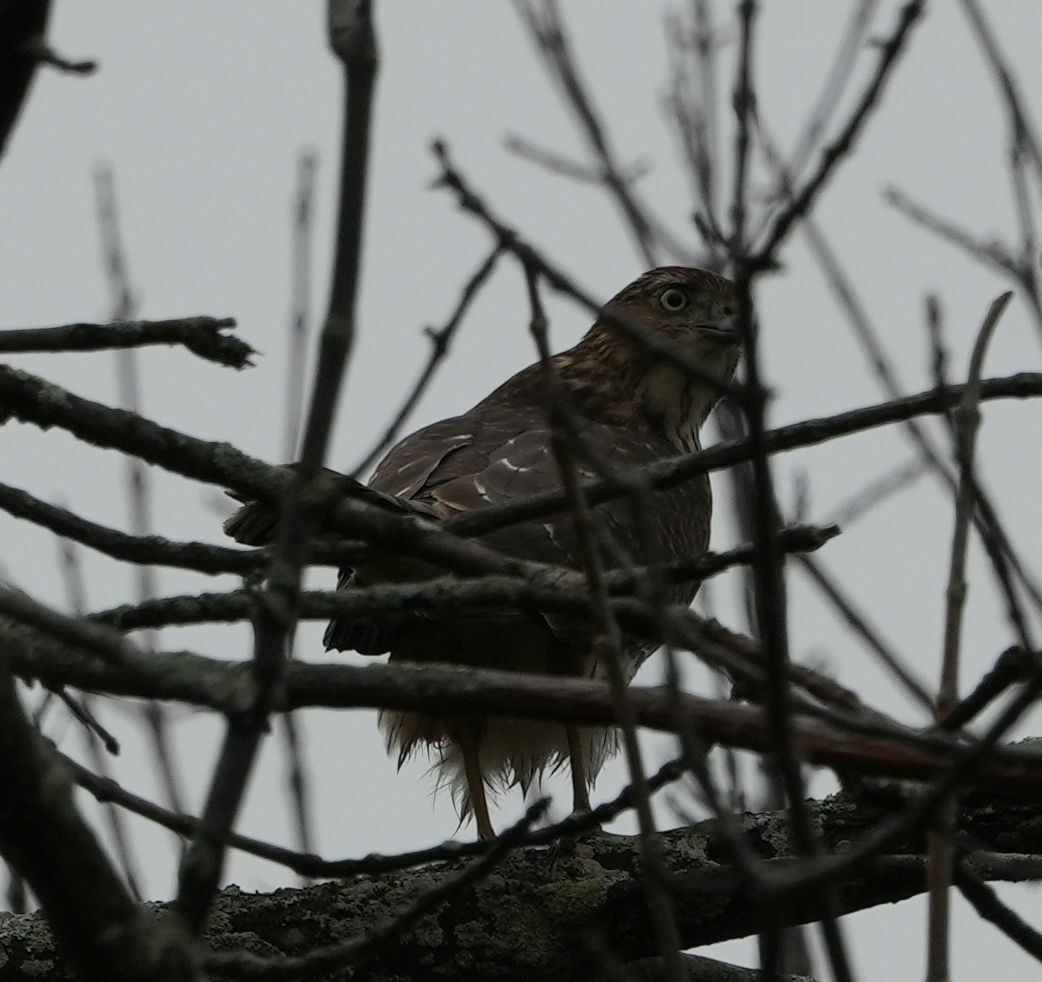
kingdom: Animalia
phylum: Chordata
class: Aves
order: Accipitriformes
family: Accipitridae
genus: Accipiter
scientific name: Accipiter cooperii
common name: Cooper's hawk
